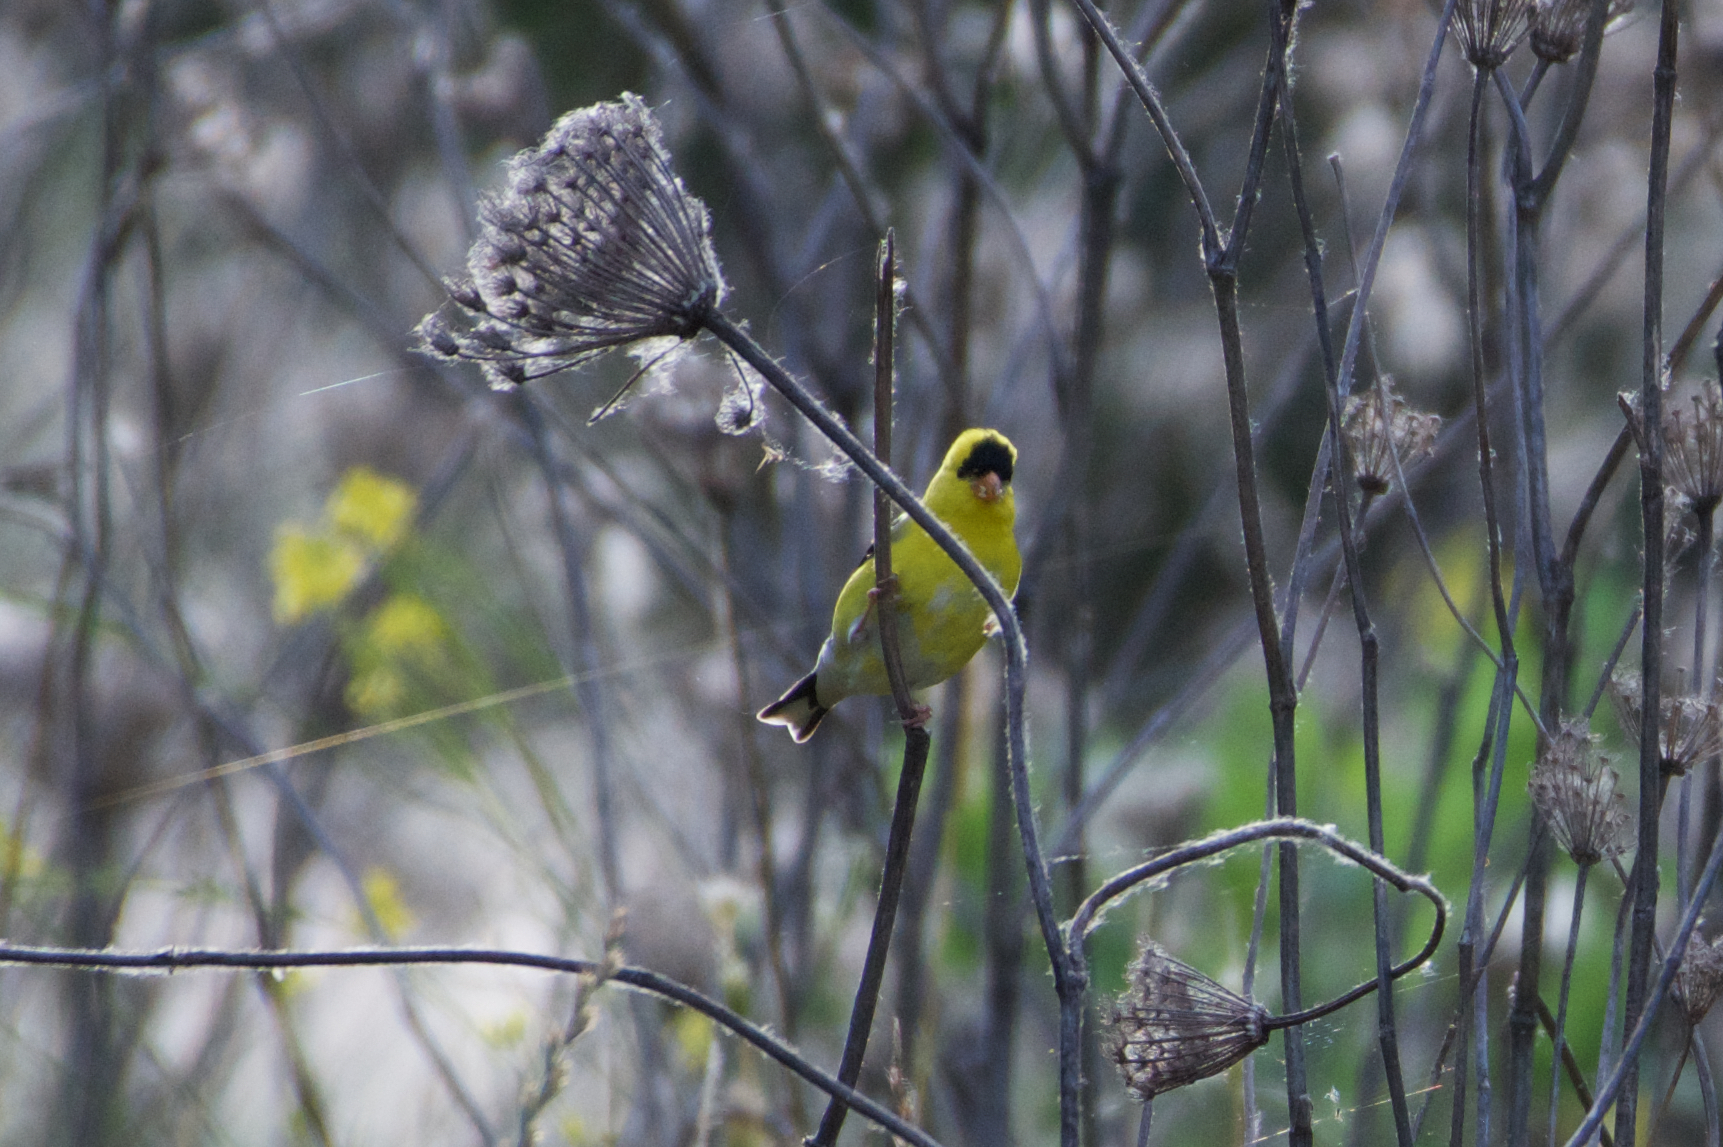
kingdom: Animalia
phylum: Chordata
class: Aves
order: Passeriformes
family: Fringillidae
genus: Spinus
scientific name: Spinus tristis
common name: American goldfinch
